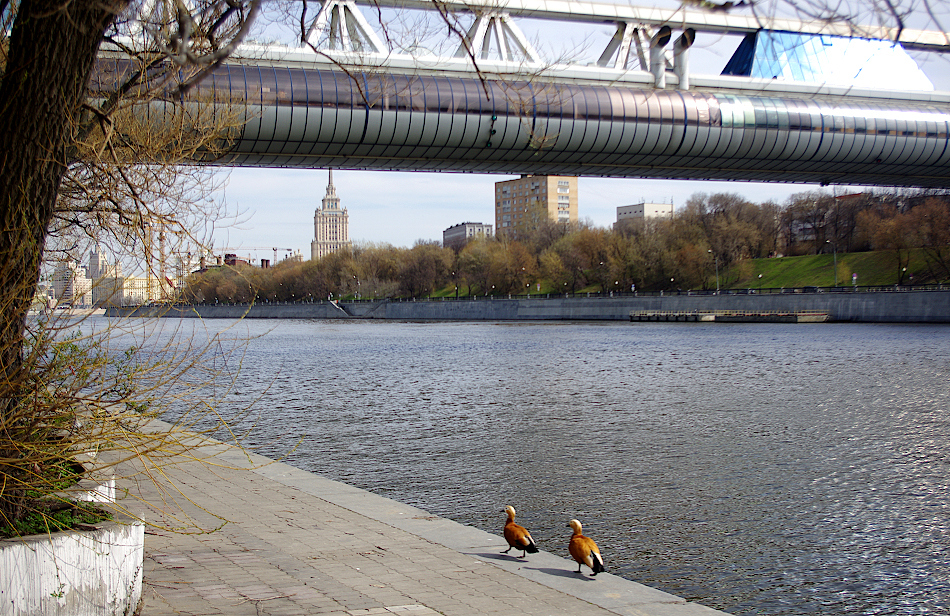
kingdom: Animalia
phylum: Chordata
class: Aves
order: Anseriformes
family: Anatidae
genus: Tadorna
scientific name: Tadorna ferruginea
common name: Ruddy shelduck
